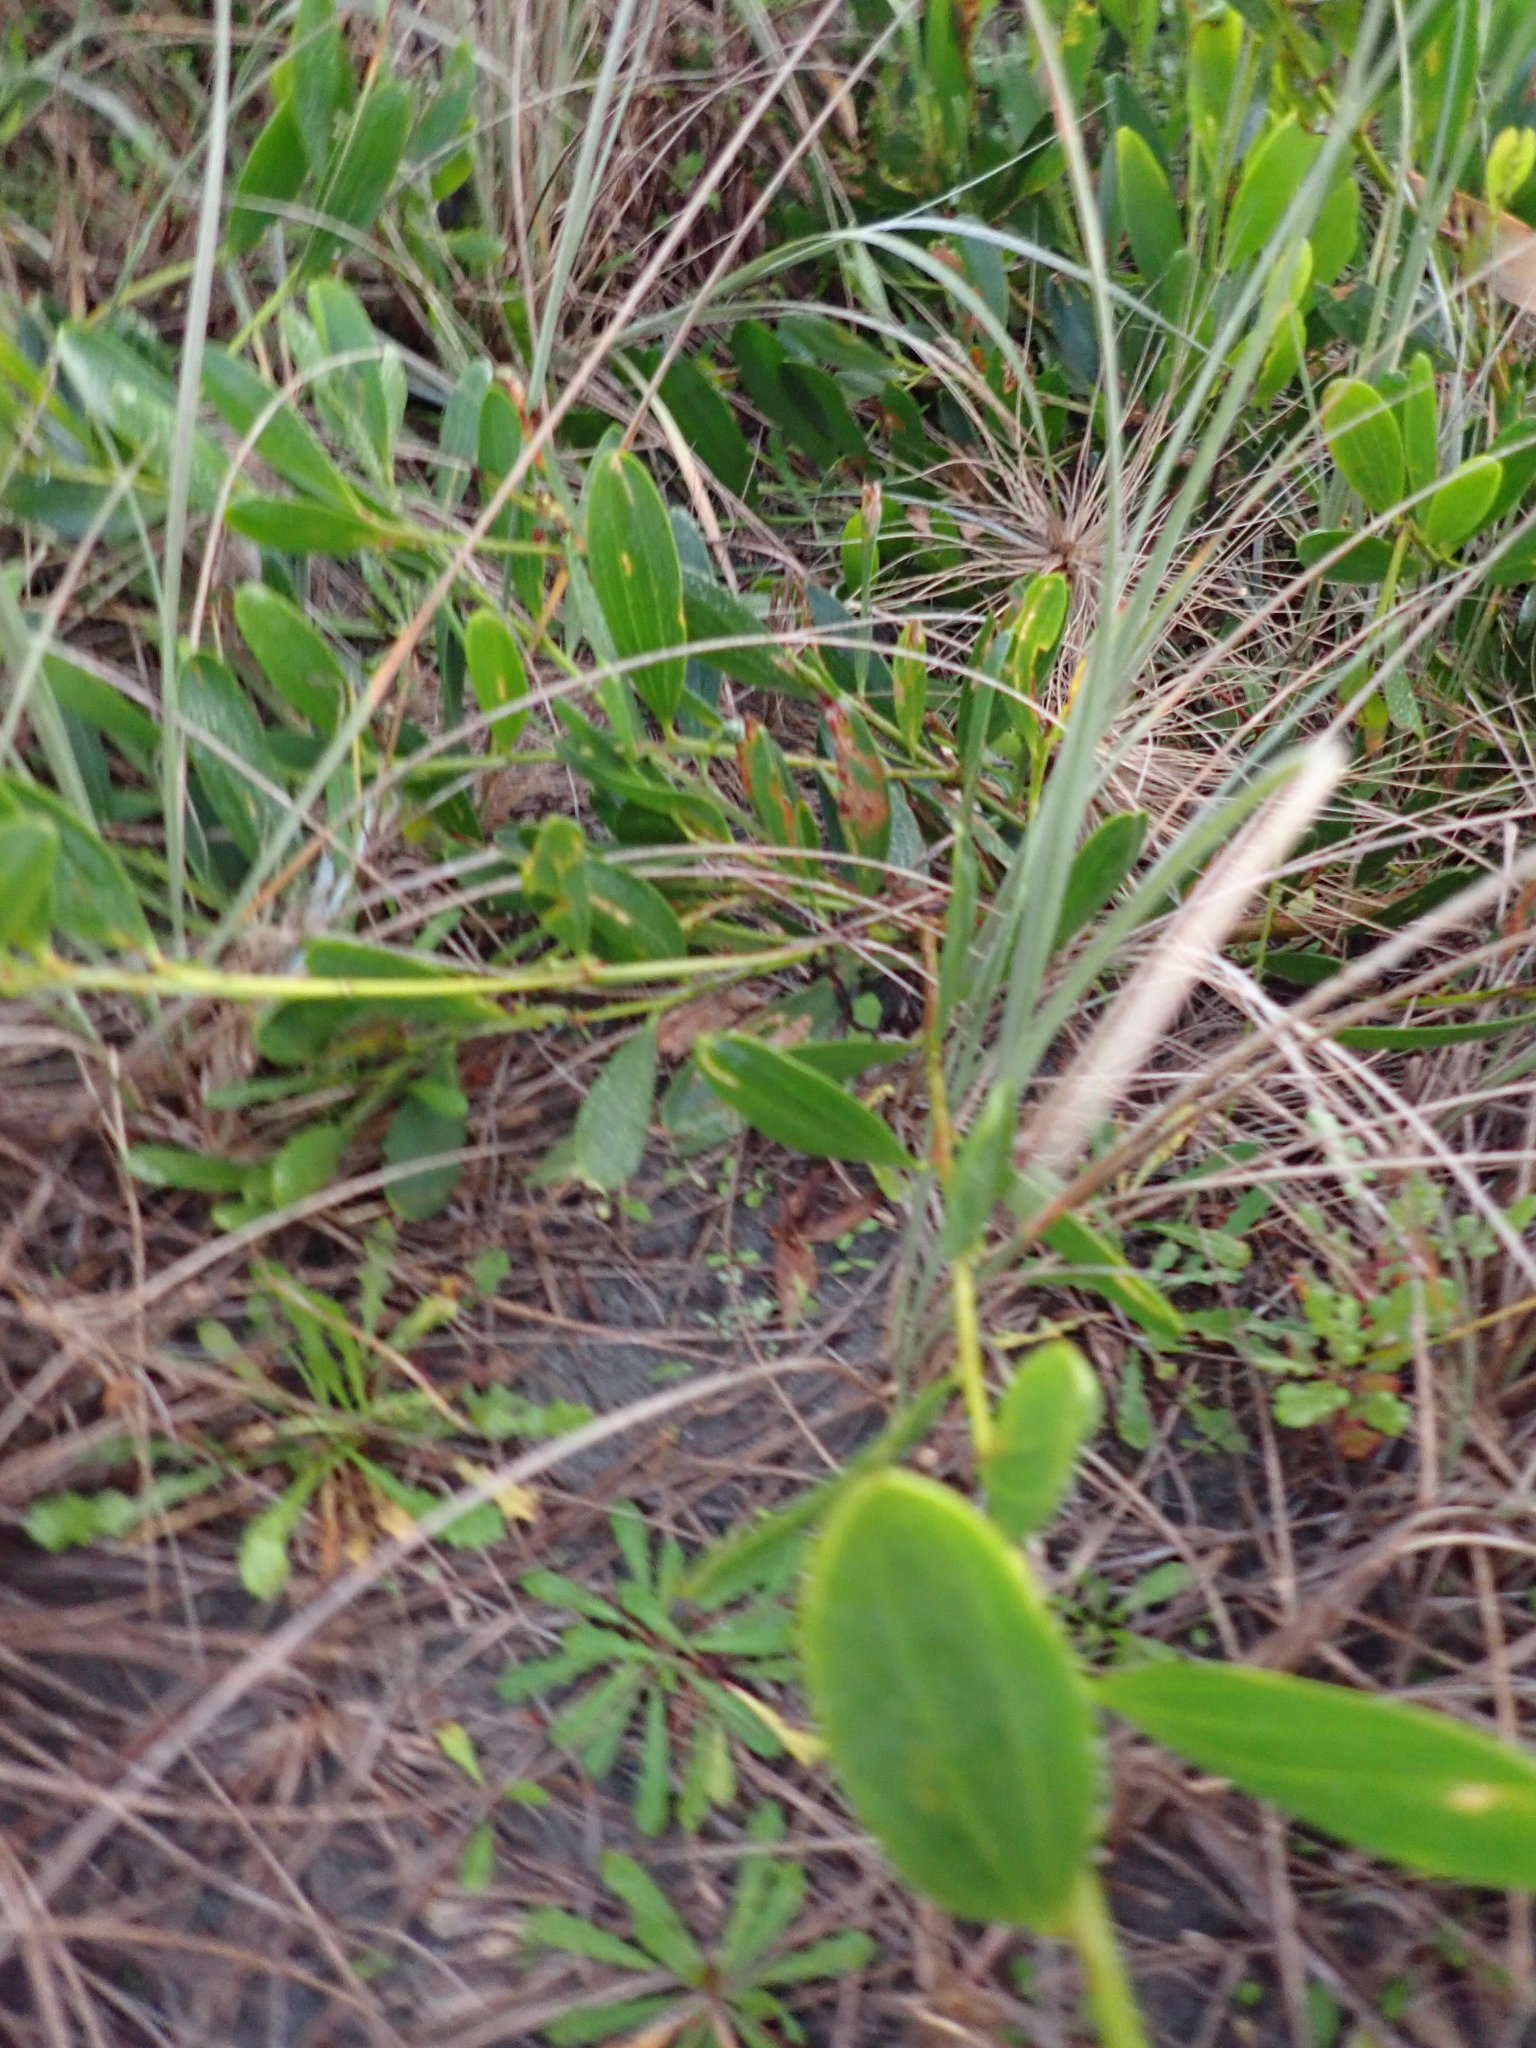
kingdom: Plantae
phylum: Tracheophyta
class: Magnoliopsida
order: Fabales
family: Fabaceae
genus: Acacia
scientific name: Acacia longifolia
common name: Sydney golden wattle
